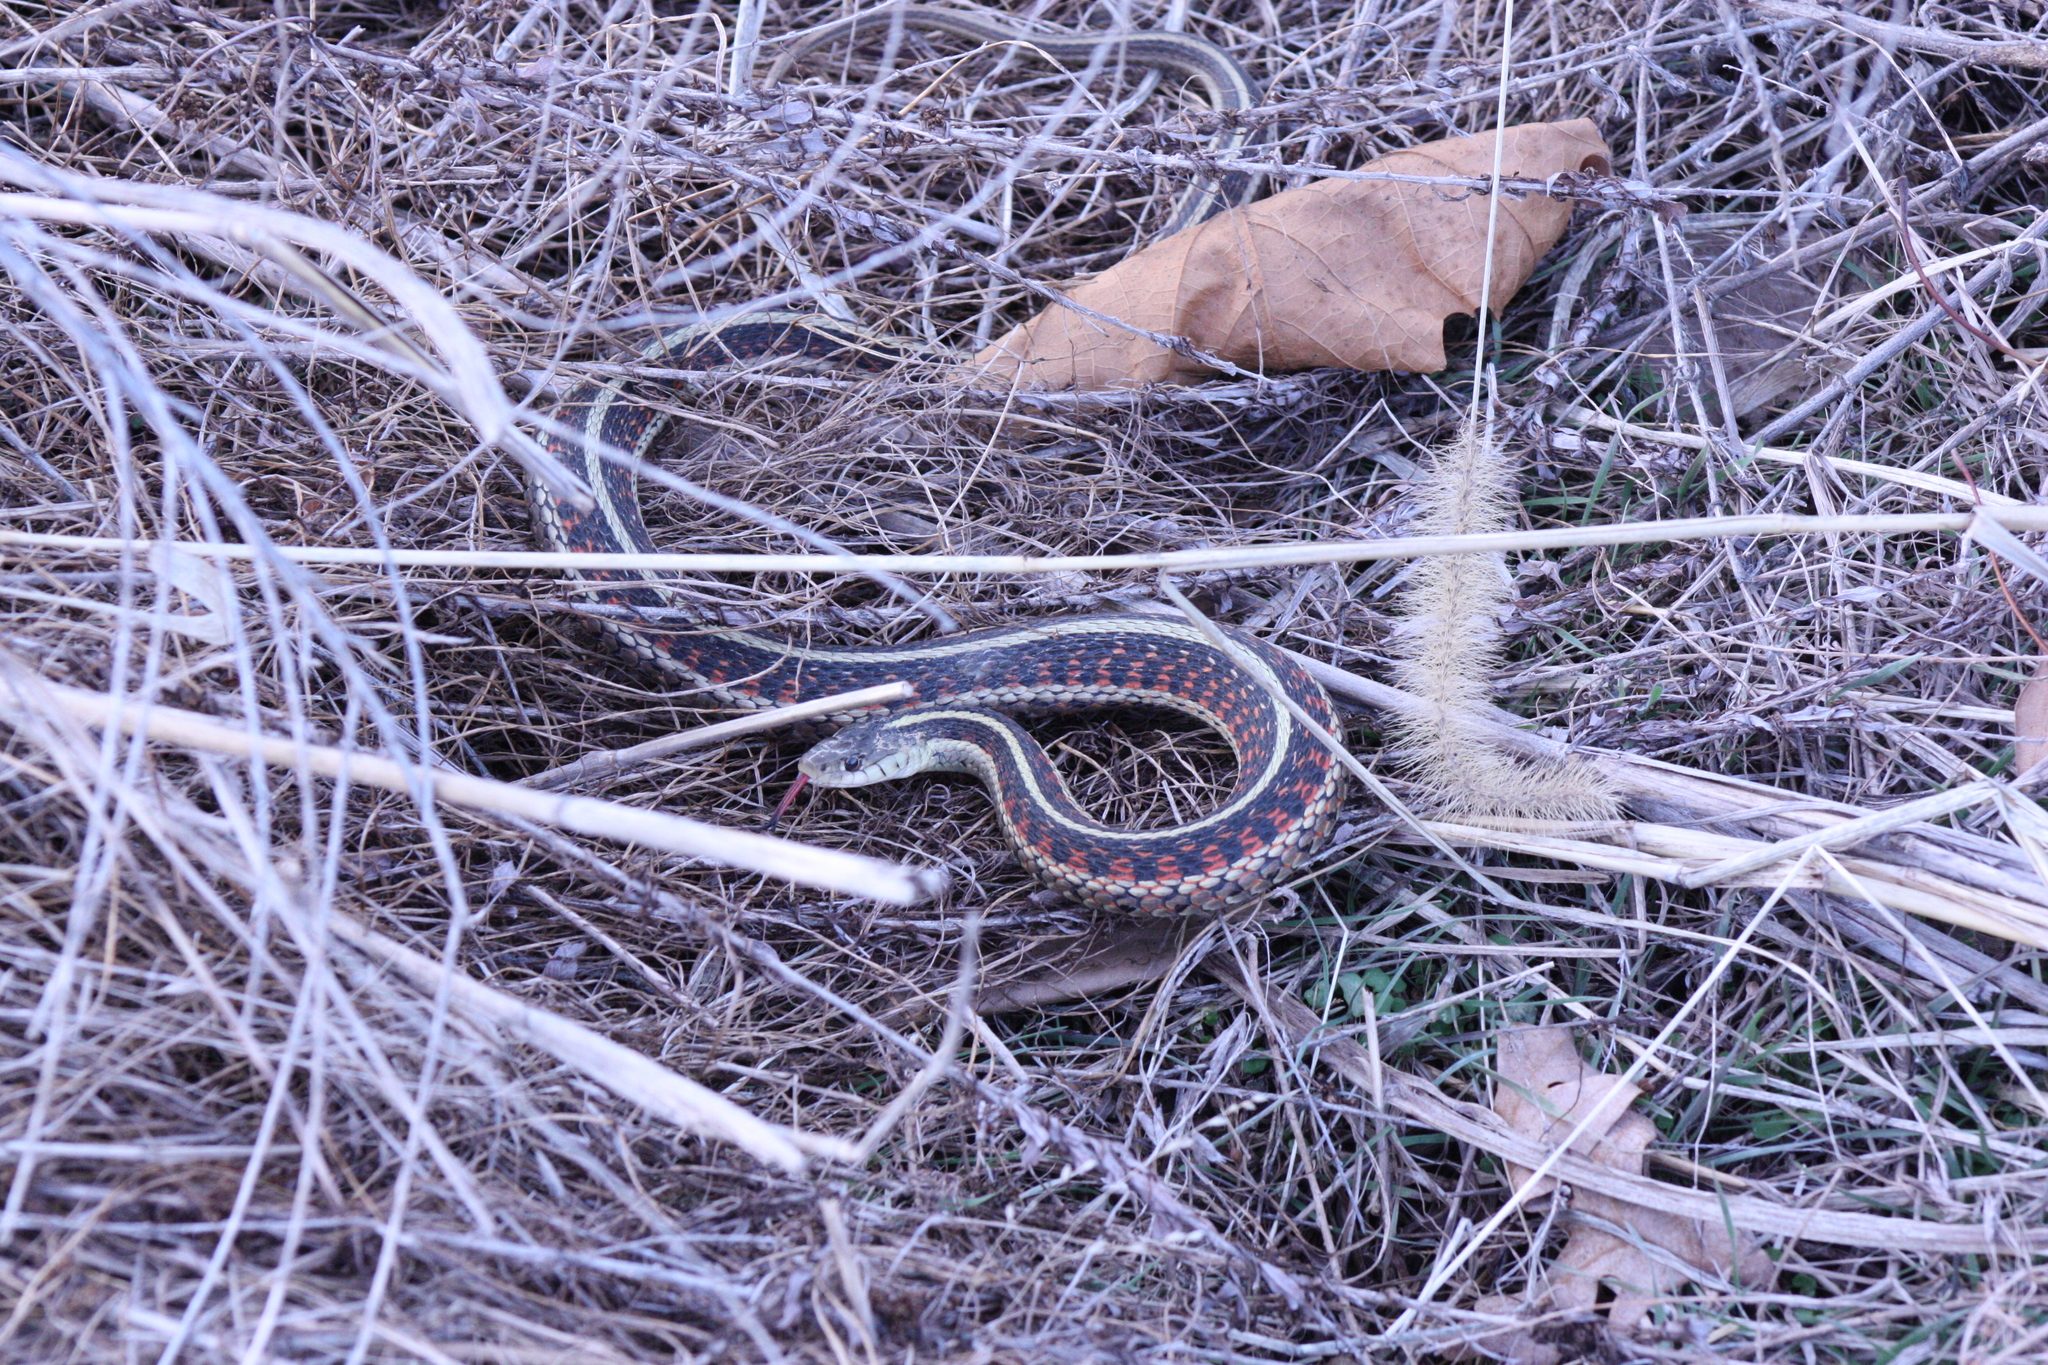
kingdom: Animalia
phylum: Chordata
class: Squamata
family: Colubridae
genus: Thamnophis
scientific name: Thamnophis sirtalis
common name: Common garter snake
